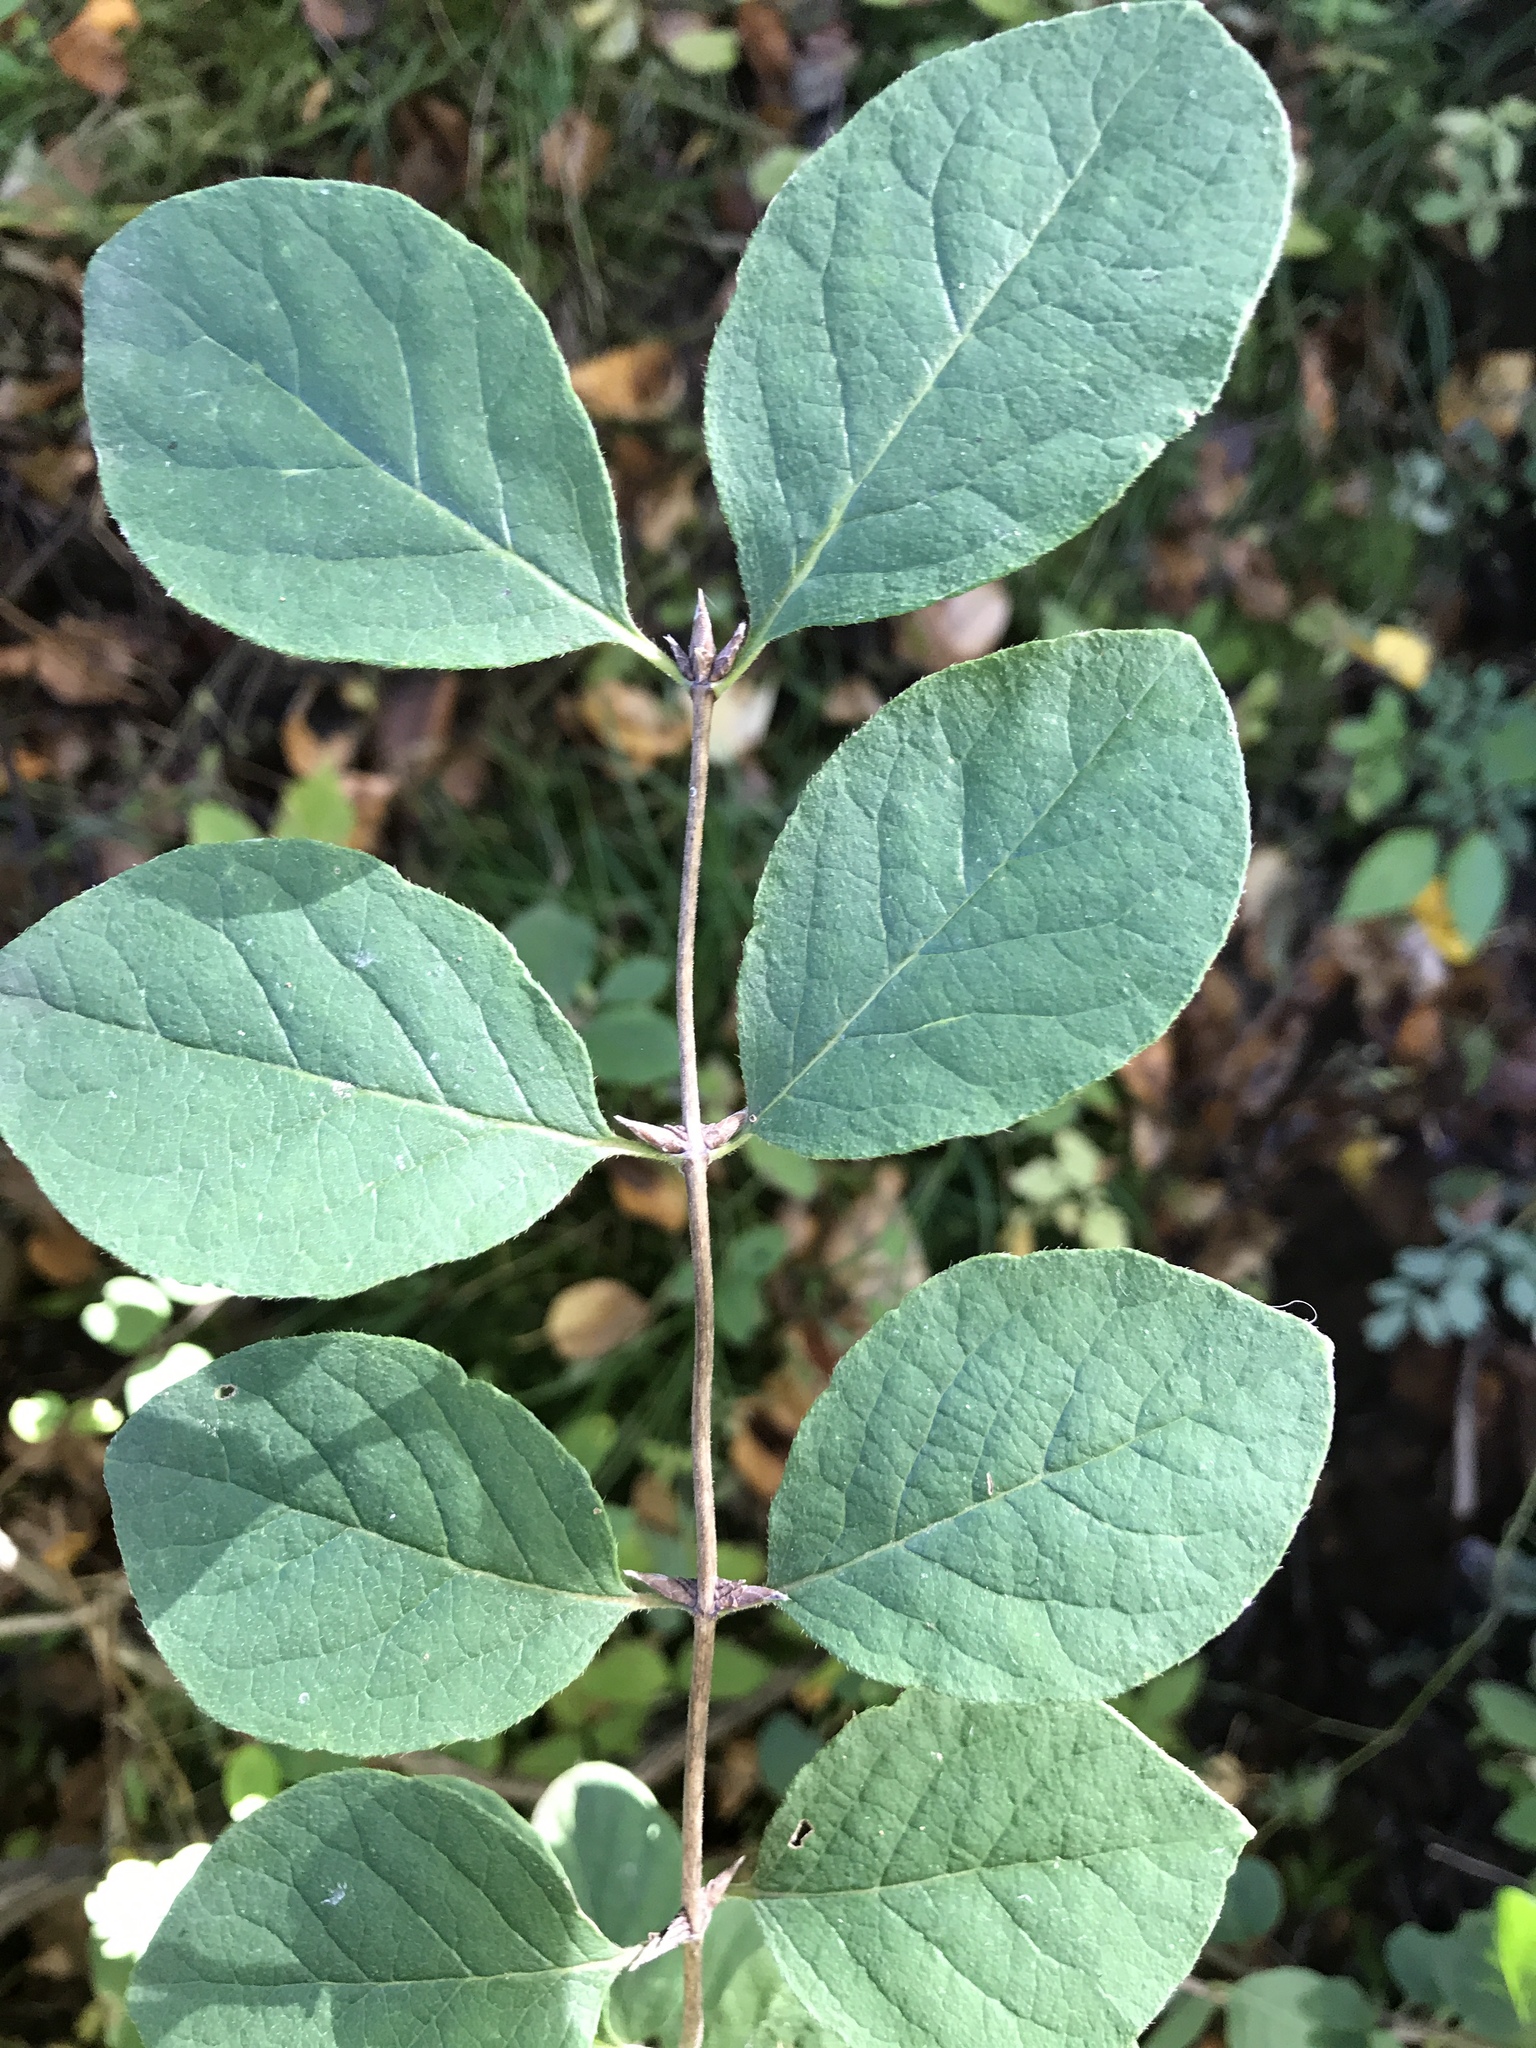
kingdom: Plantae
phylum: Tracheophyta
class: Magnoliopsida
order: Dipsacales
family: Caprifoliaceae
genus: Lonicera
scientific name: Lonicera xylosteoides
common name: Fly honeysuckle
